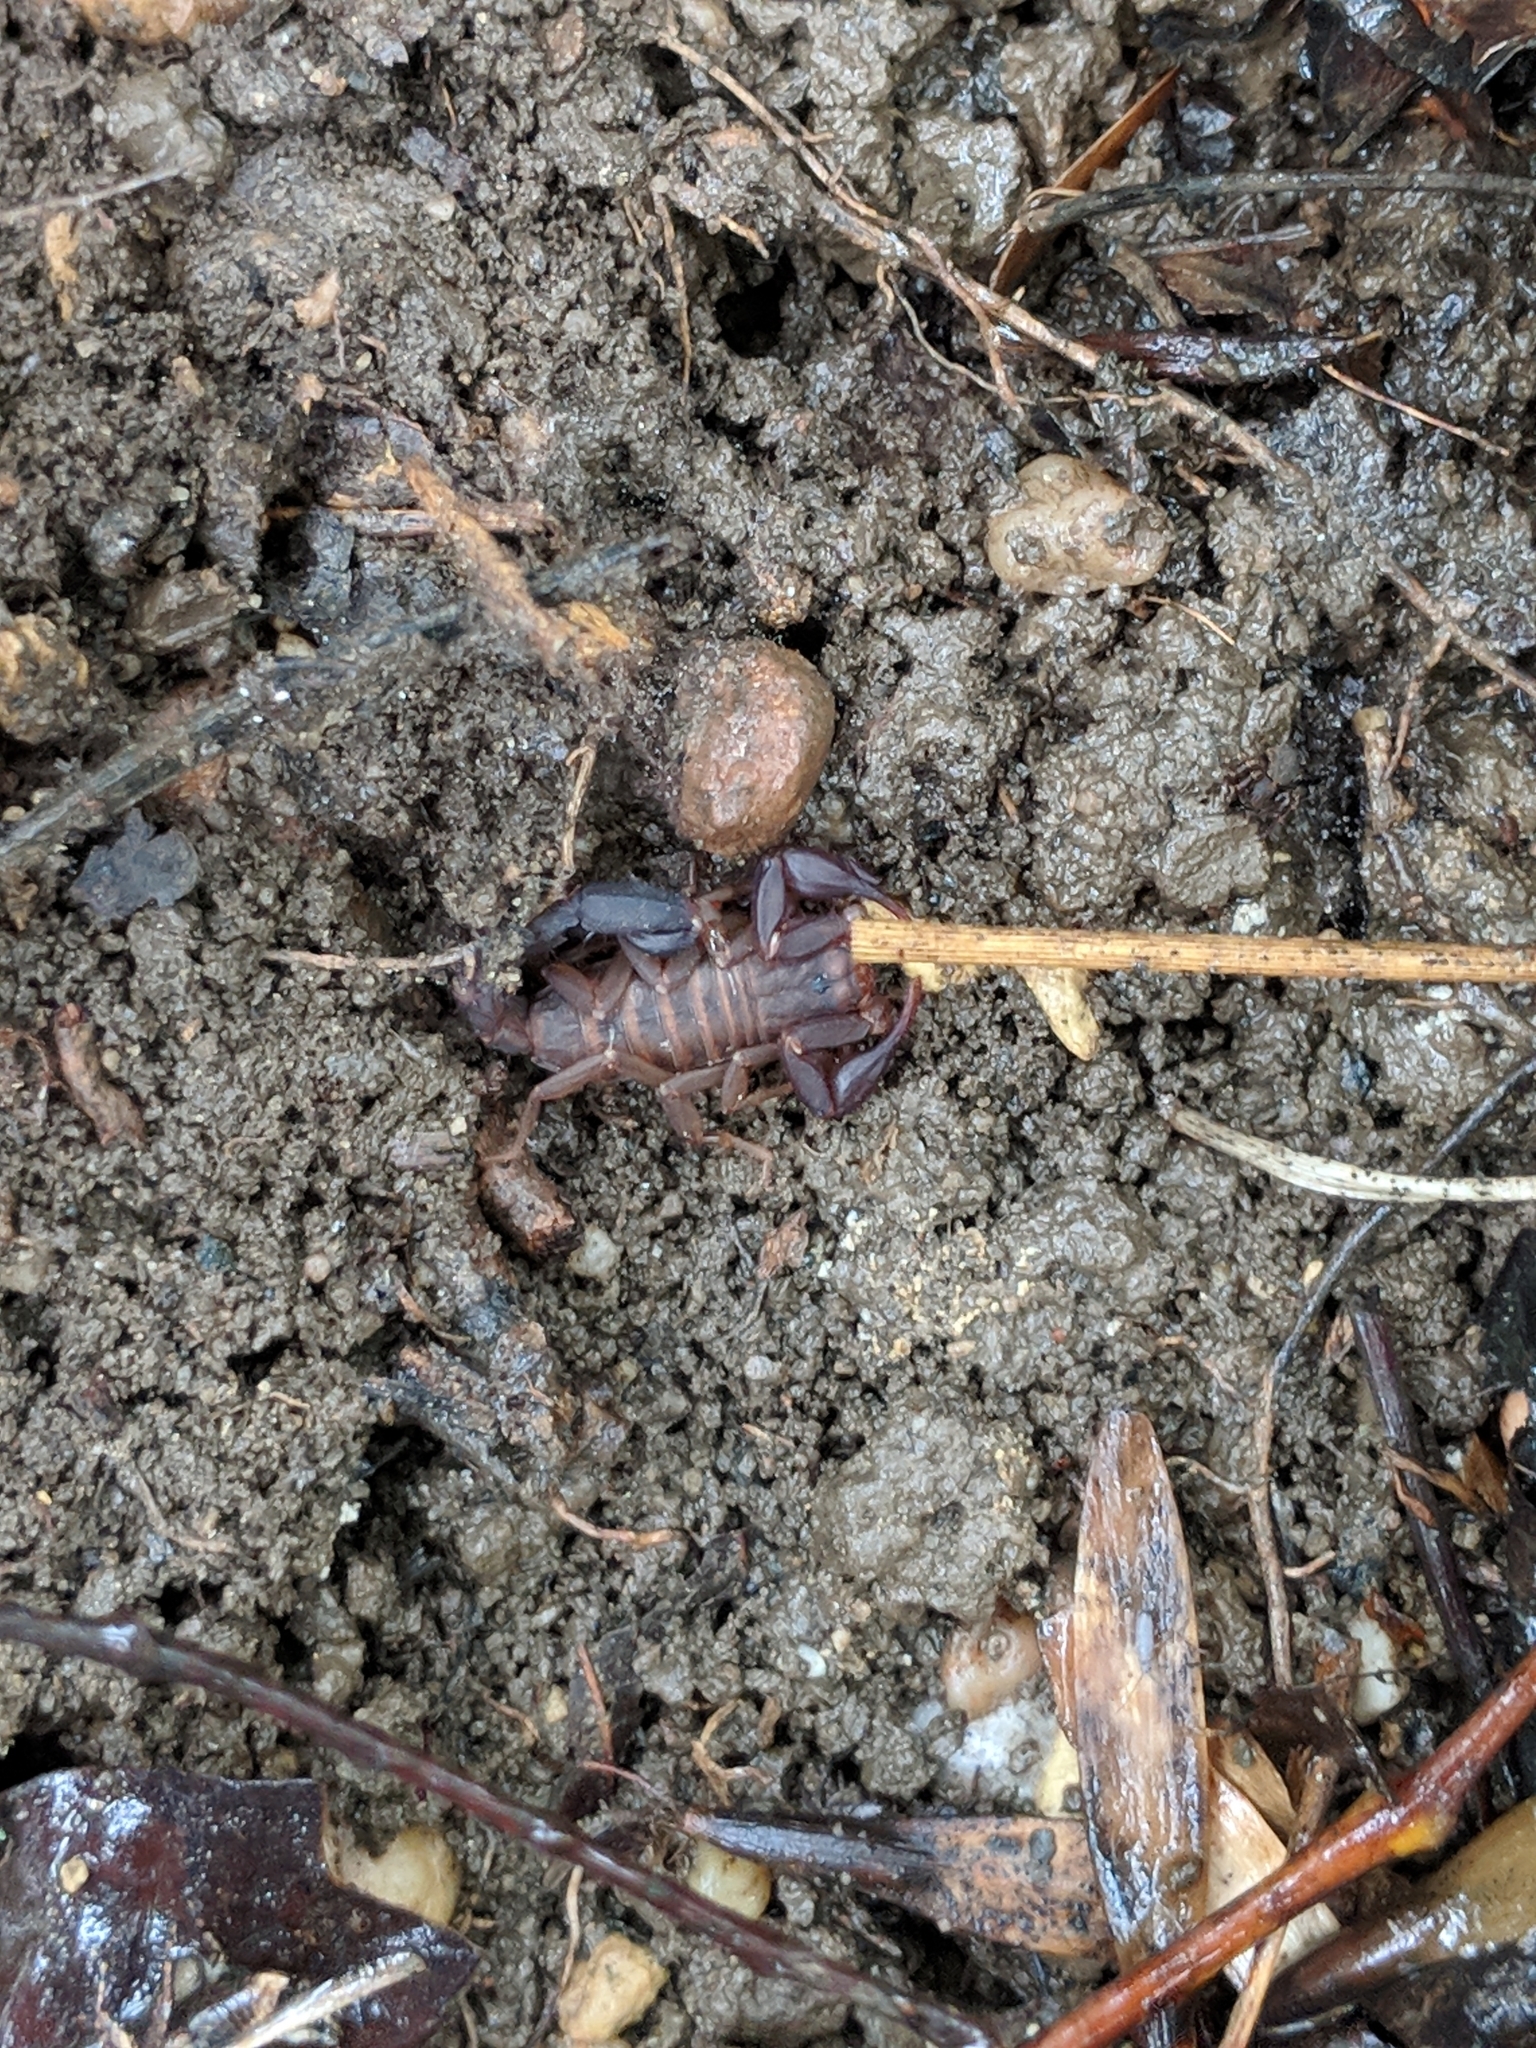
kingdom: Animalia
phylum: Arthropoda
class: Arachnida
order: Scorpiones
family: Vaejovidae
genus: Vaejovis
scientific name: Vaejovis carolinianus
